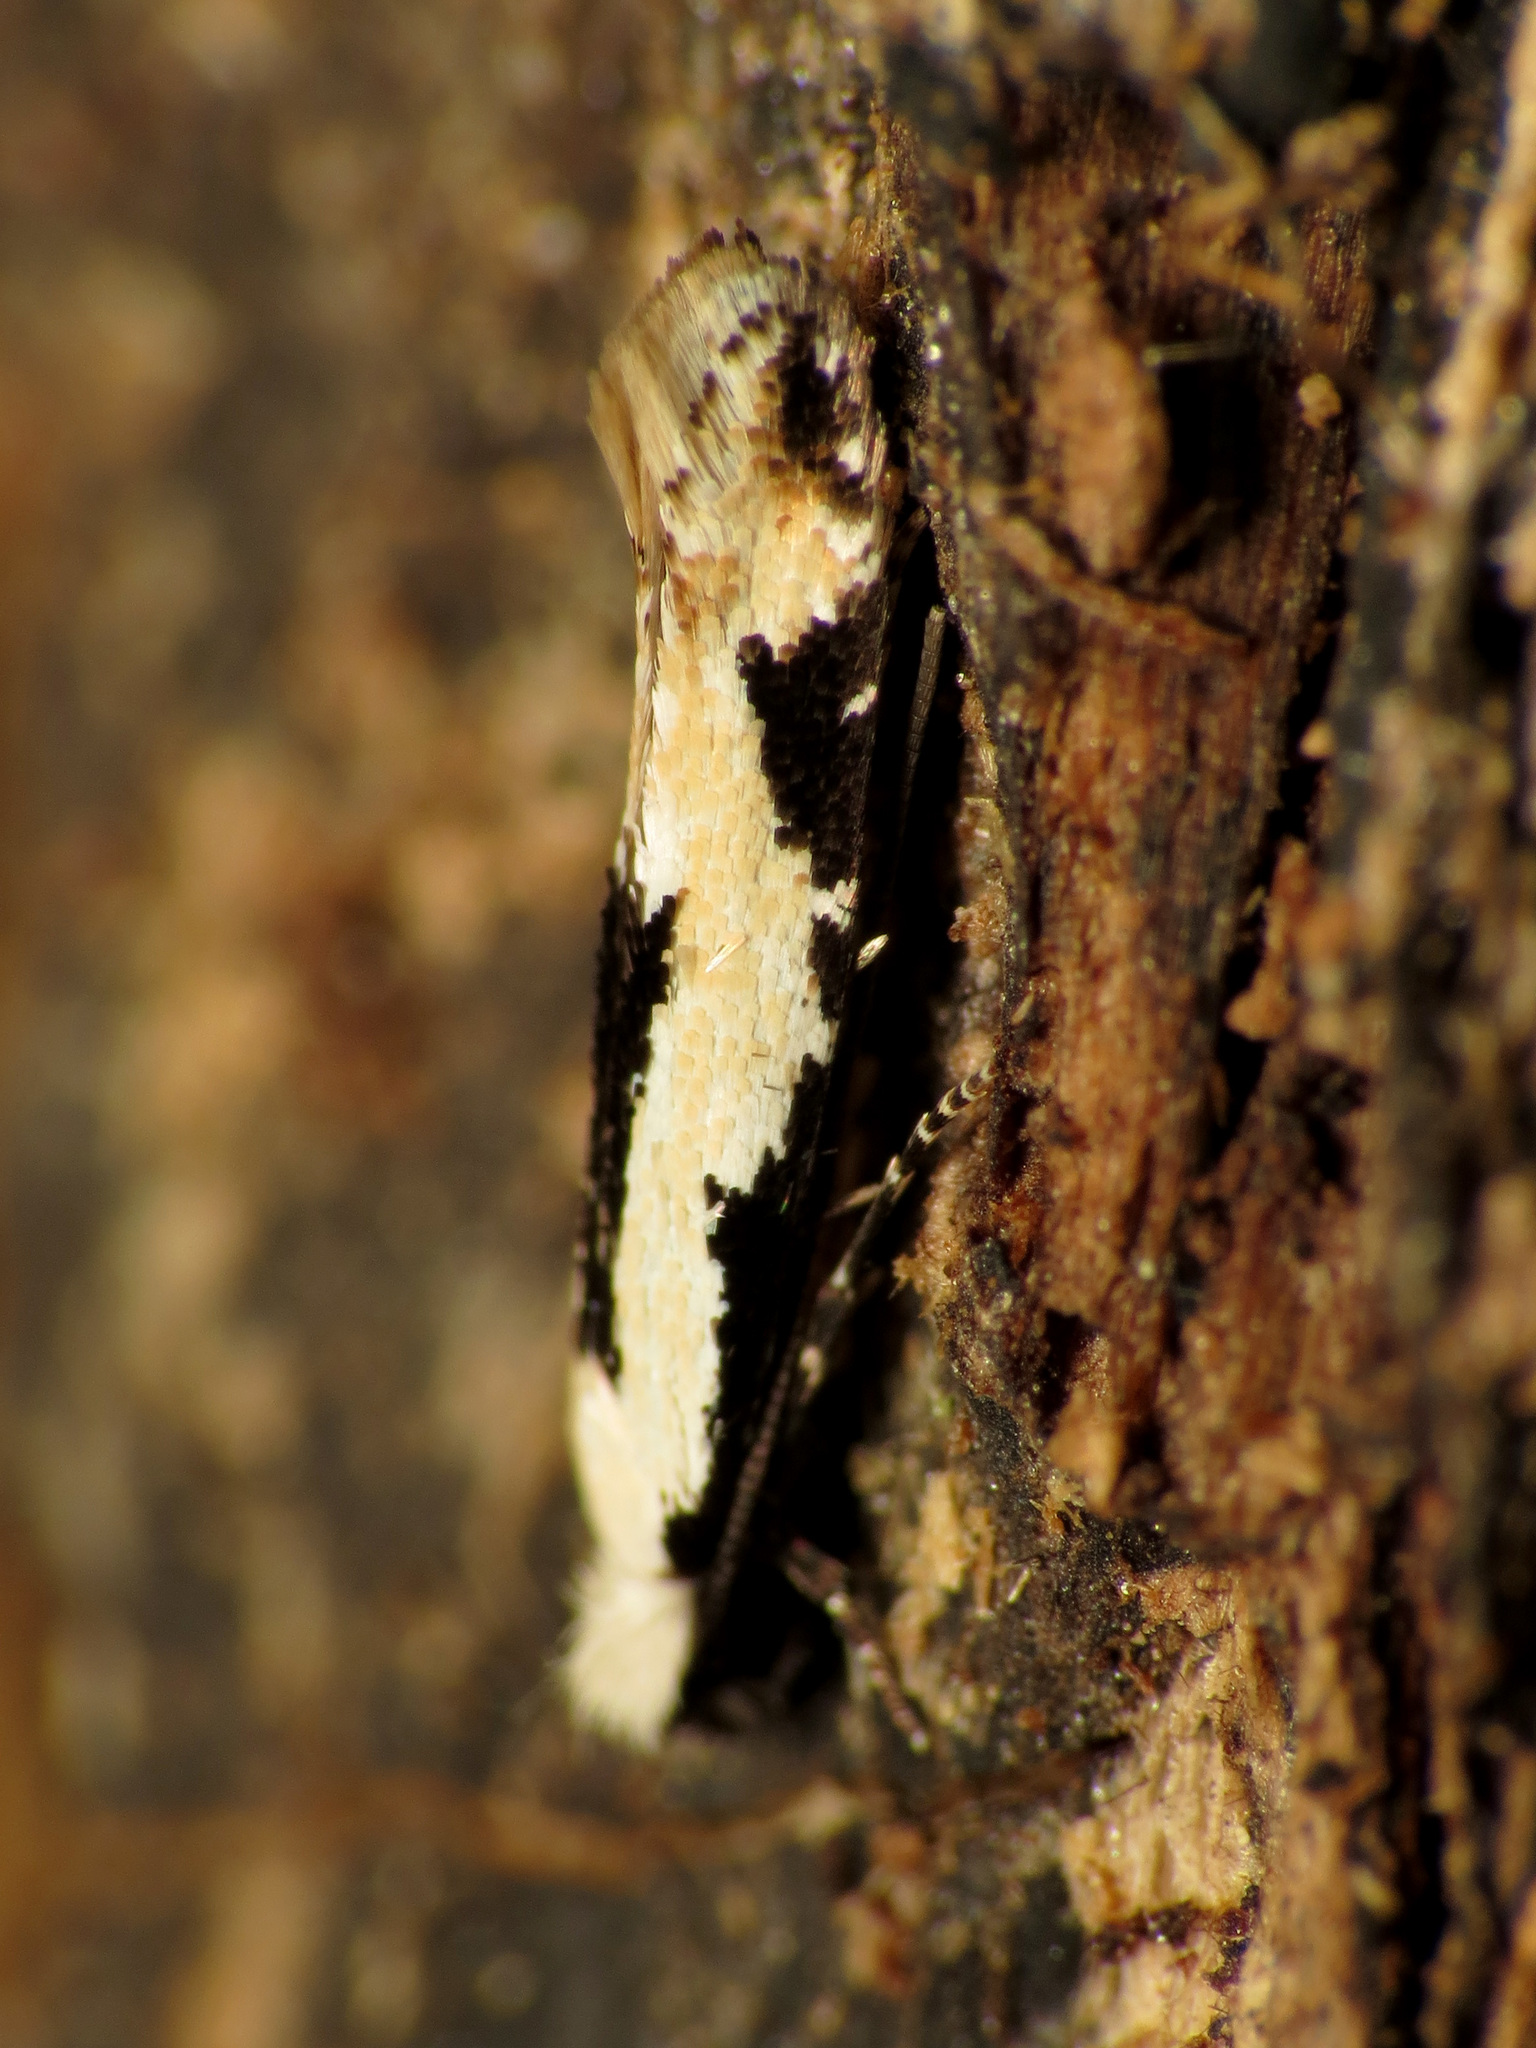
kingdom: Animalia
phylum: Arthropoda
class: Insecta
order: Lepidoptera
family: Meessiidae
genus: Mea
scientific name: Mea bipunctella
